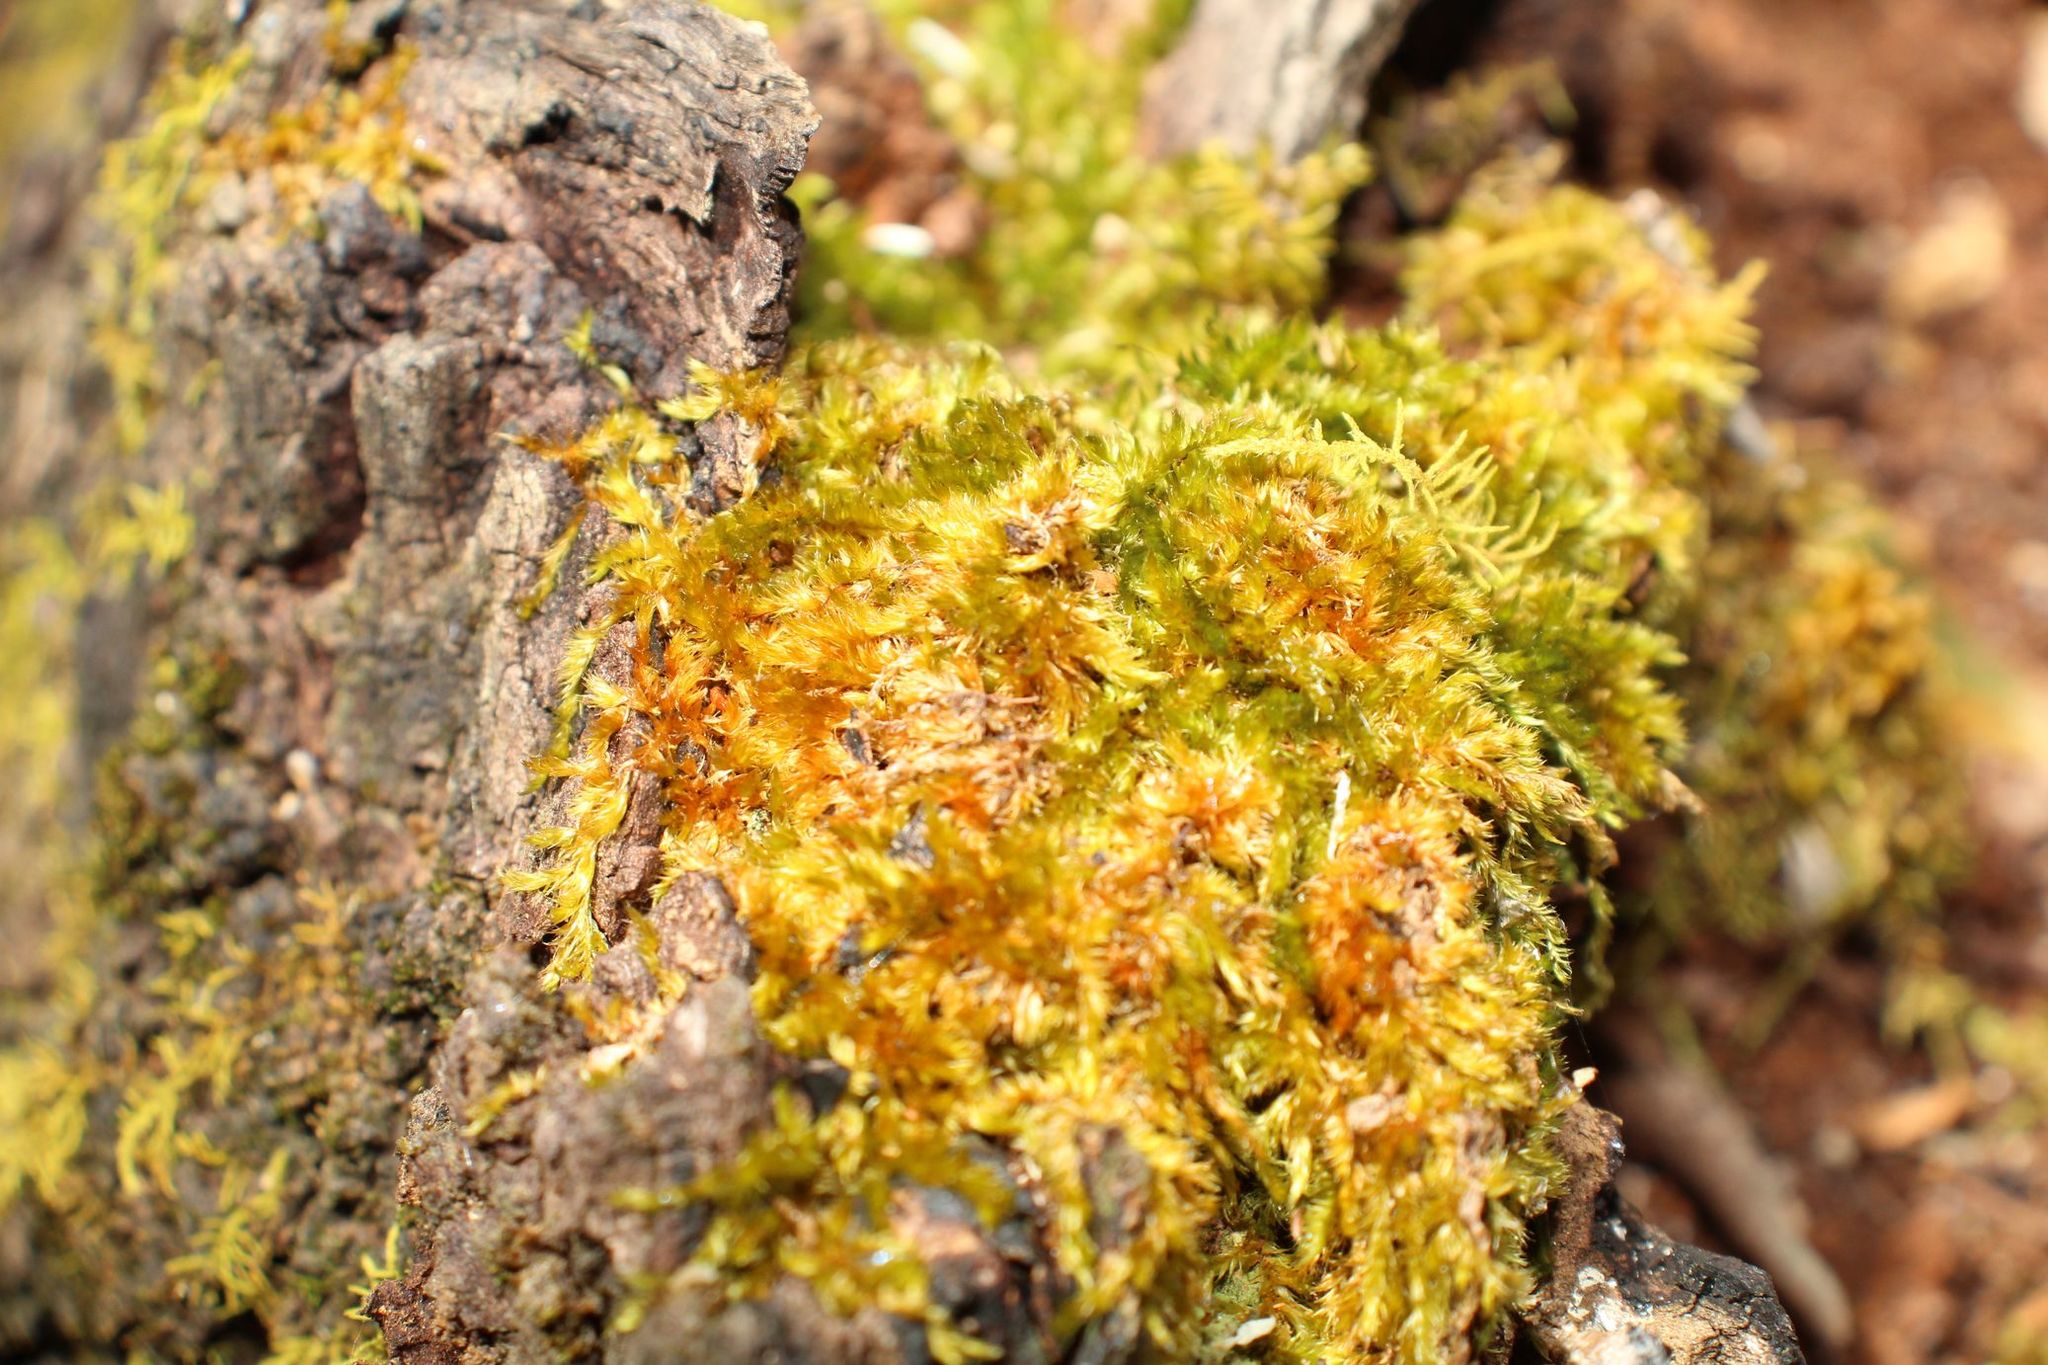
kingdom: Plantae
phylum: Bryophyta
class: Bryopsida
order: Hypnales
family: Sematophyllaceae
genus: Sematophyllum
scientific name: Sematophyllum homomallum
